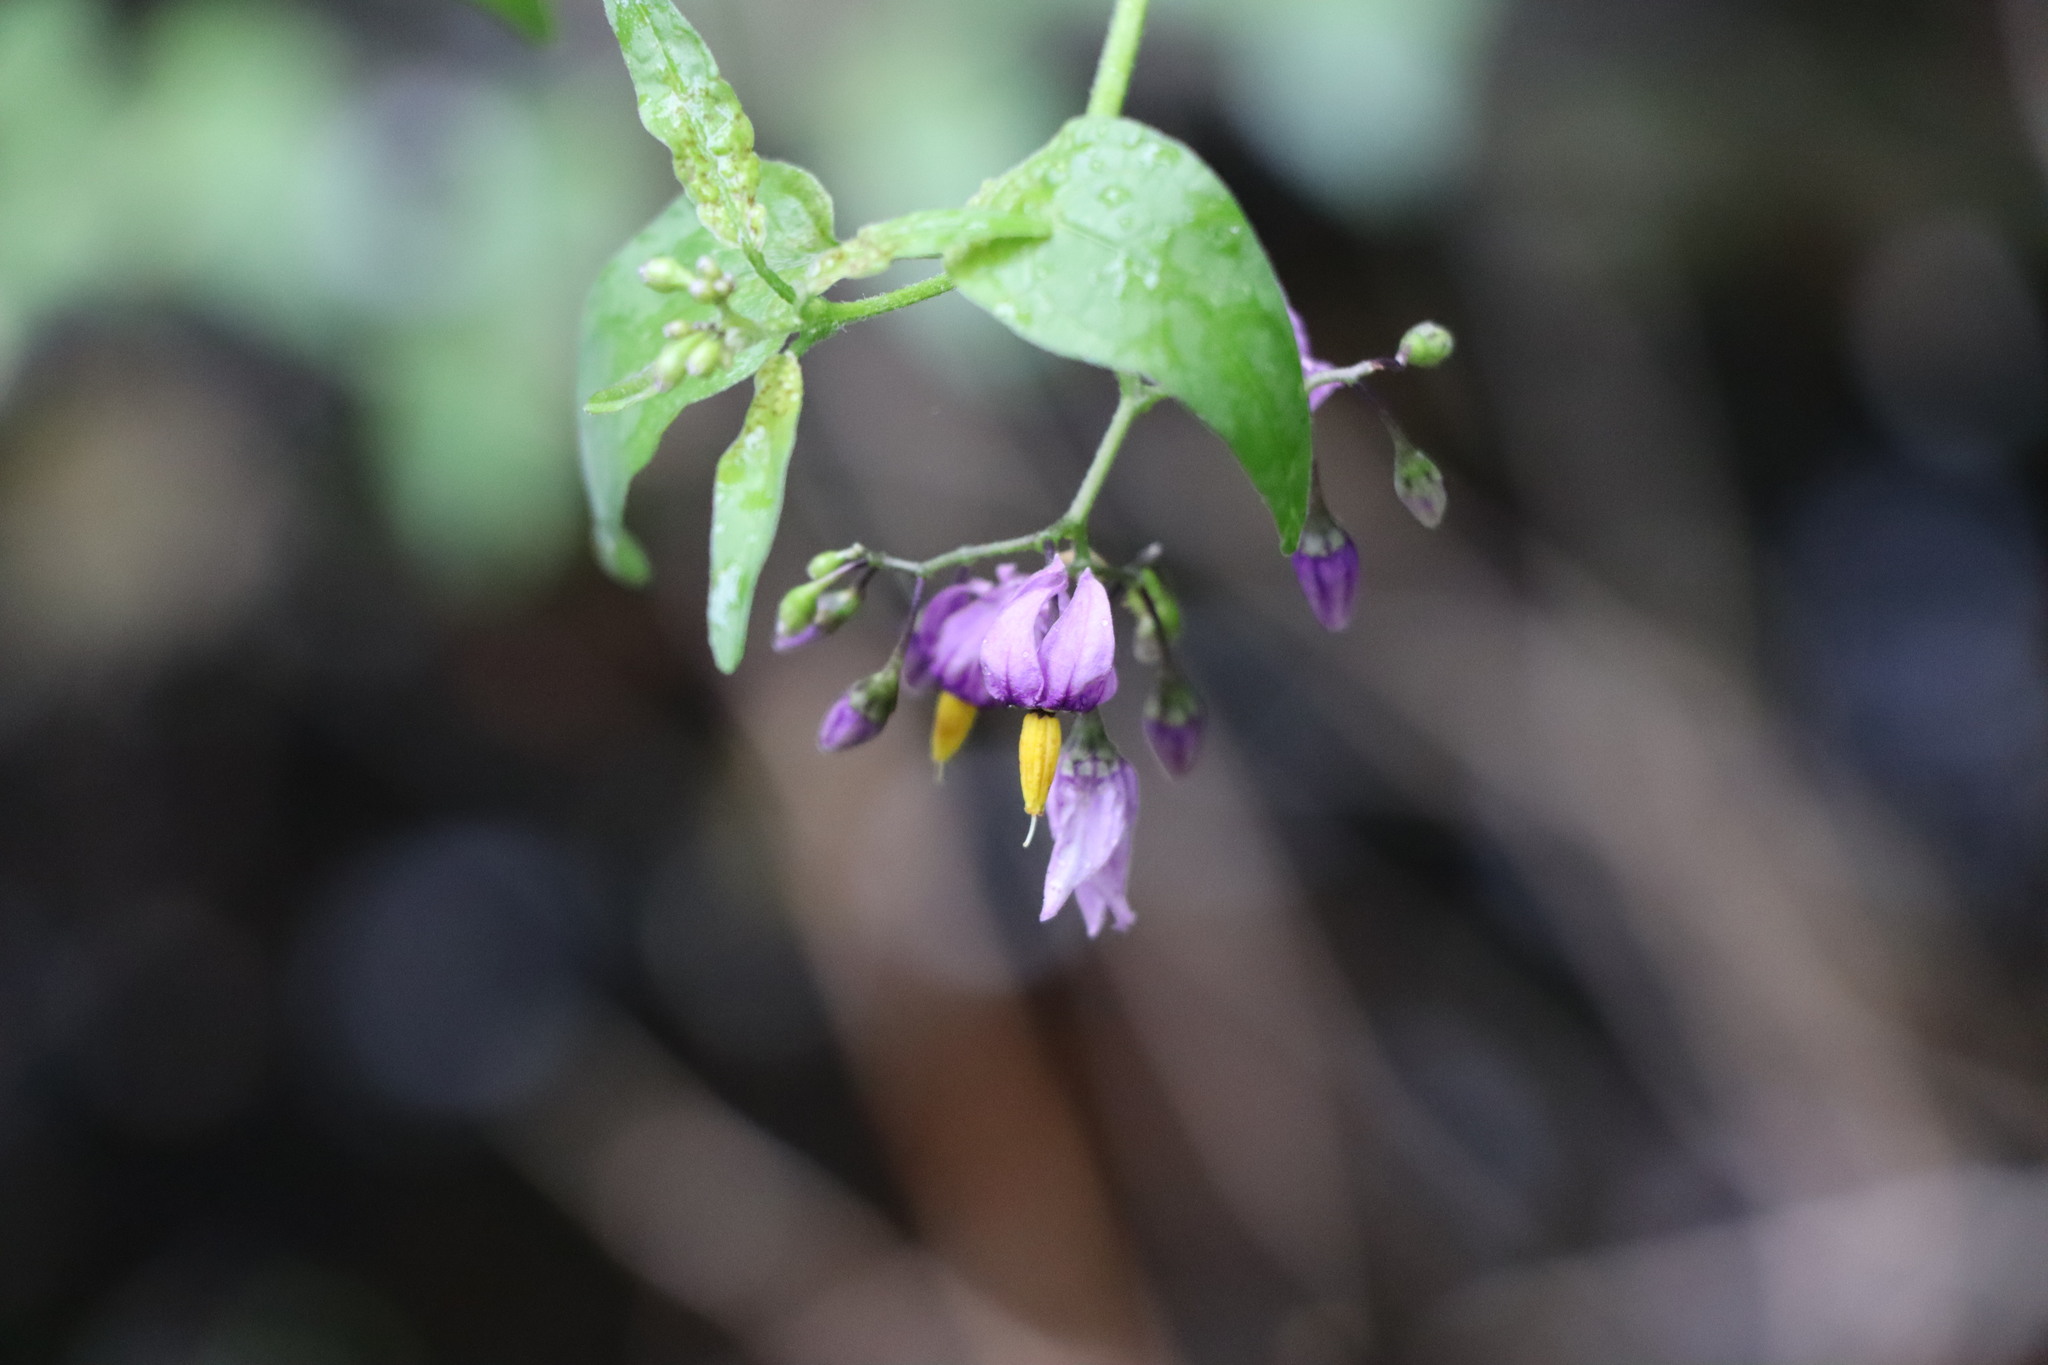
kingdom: Plantae
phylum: Tracheophyta
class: Magnoliopsida
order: Solanales
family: Solanaceae
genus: Solanum
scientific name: Solanum dulcamara
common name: Climbing nightshade
